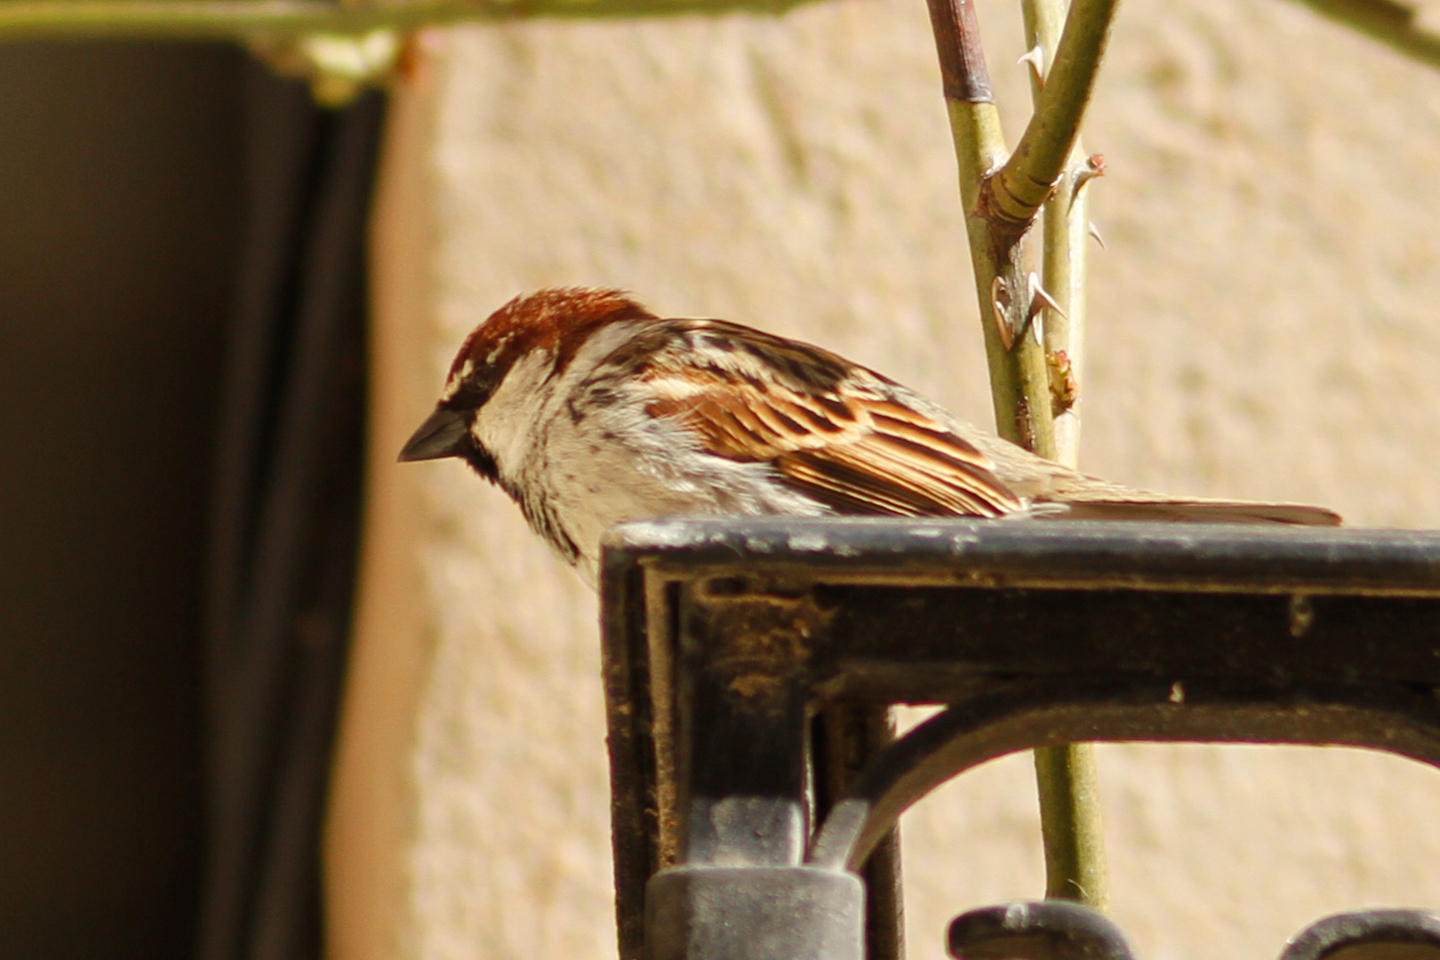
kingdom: Animalia
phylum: Chordata
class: Aves
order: Passeriformes
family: Passeridae
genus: Passer
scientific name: Passer hispaniolensis
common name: Spanish sparrow
